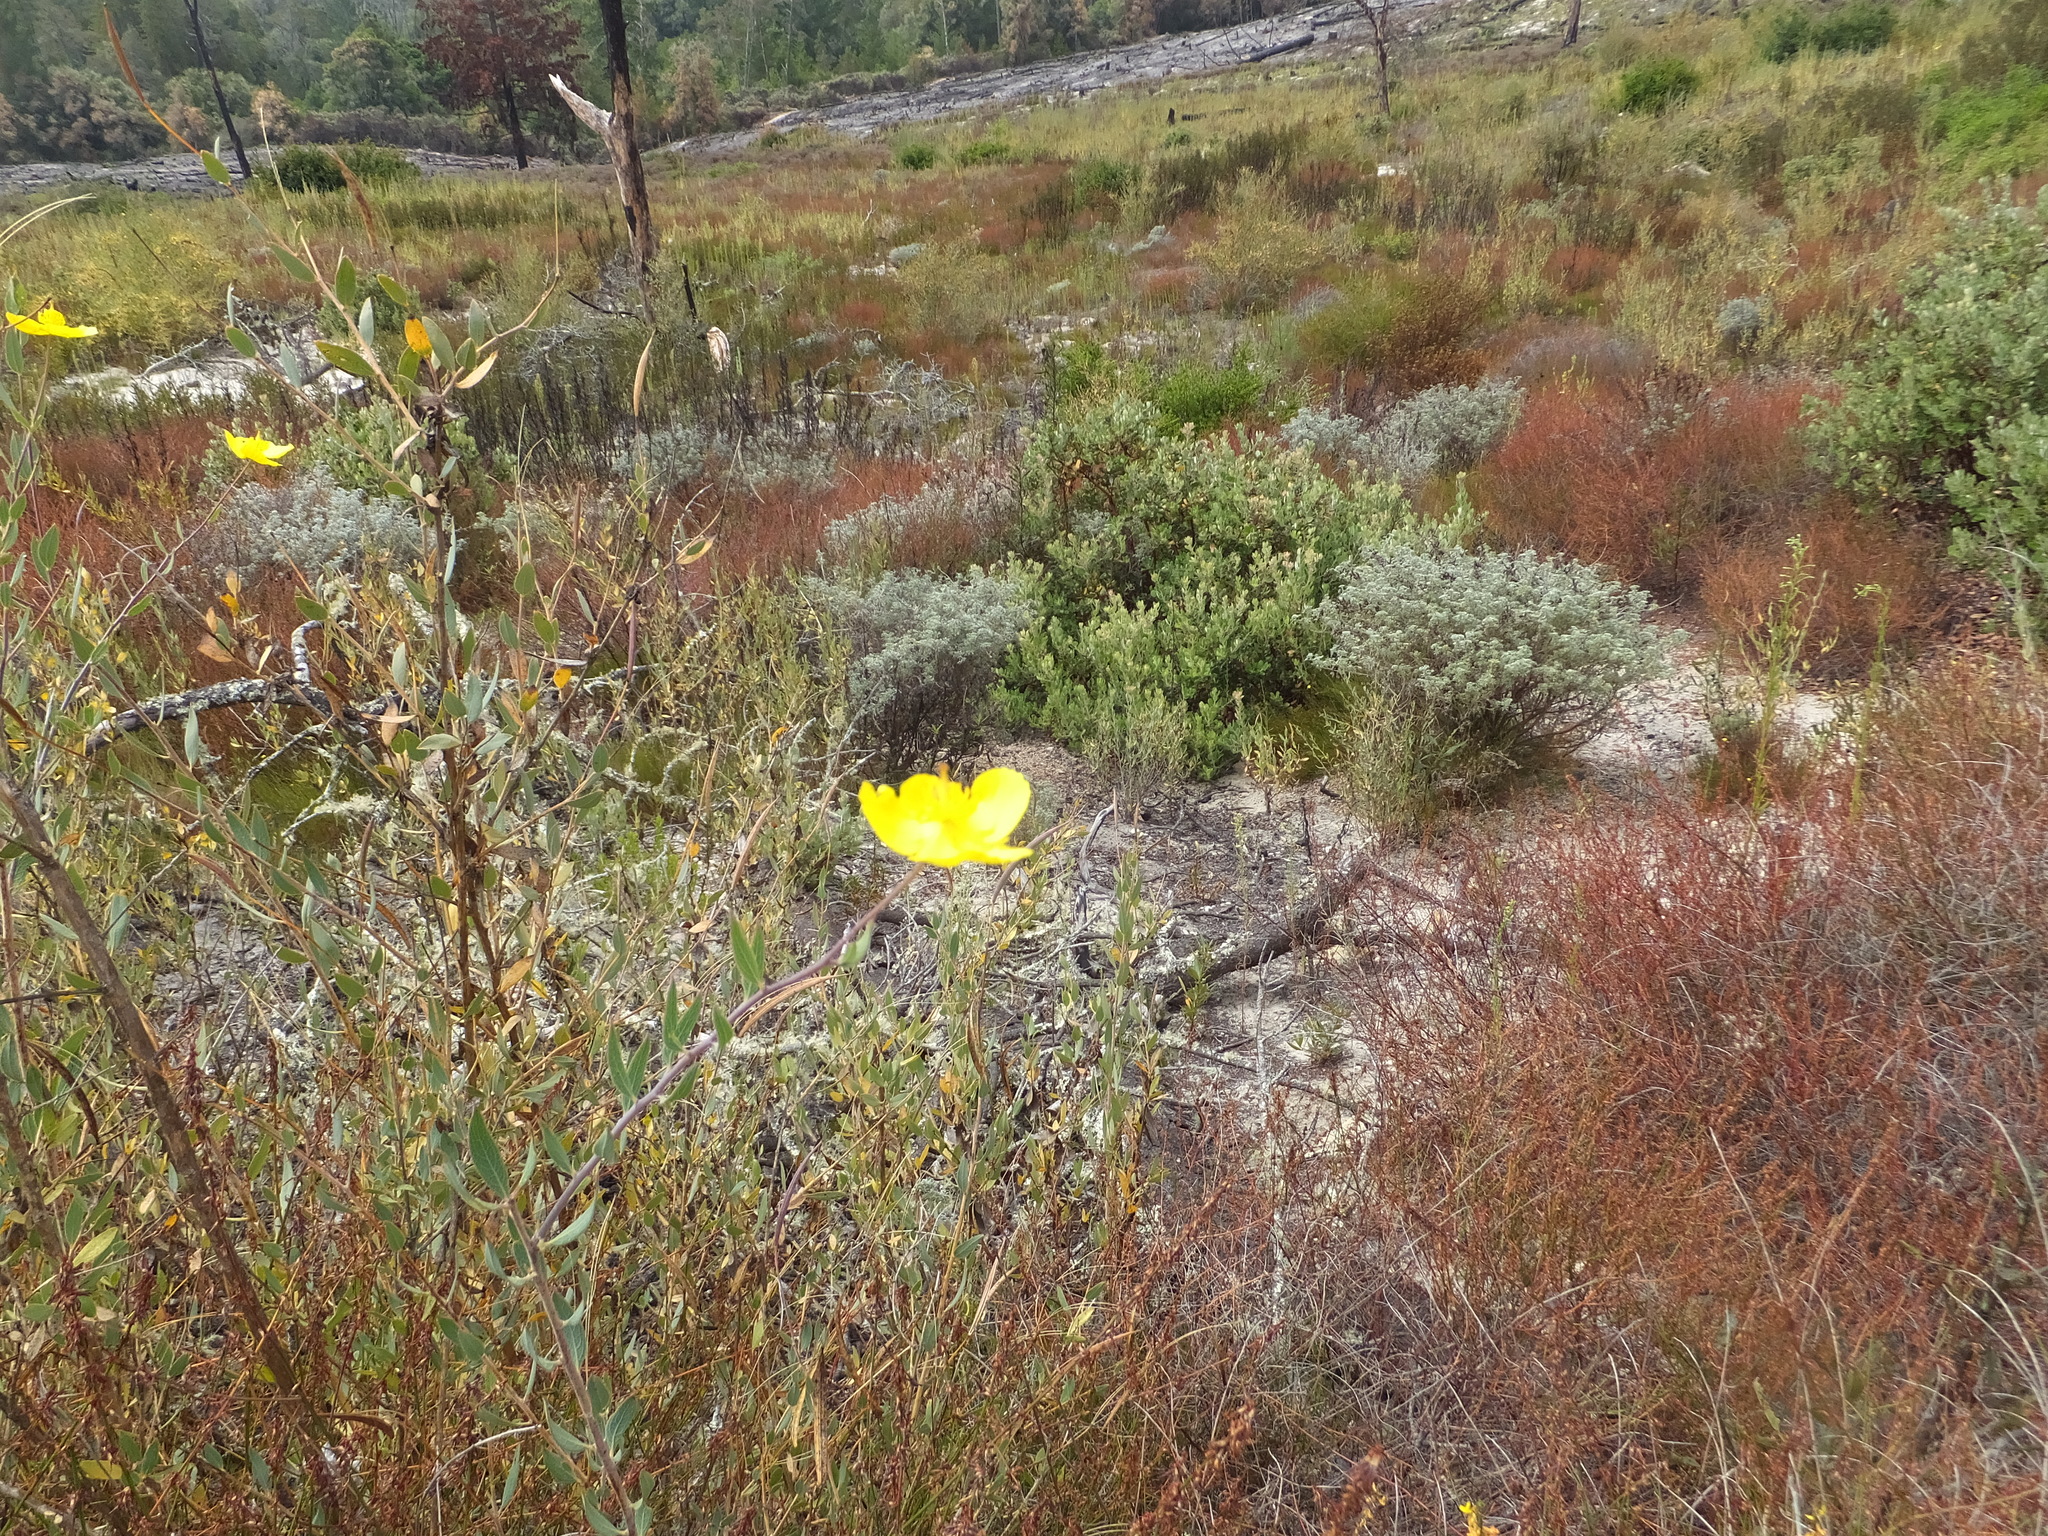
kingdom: Plantae
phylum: Tracheophyta
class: Magnoliopsida
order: Ranunculales
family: Papaveraceae
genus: Dendromecon
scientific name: Dendromecon rigida
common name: Tree poppy
